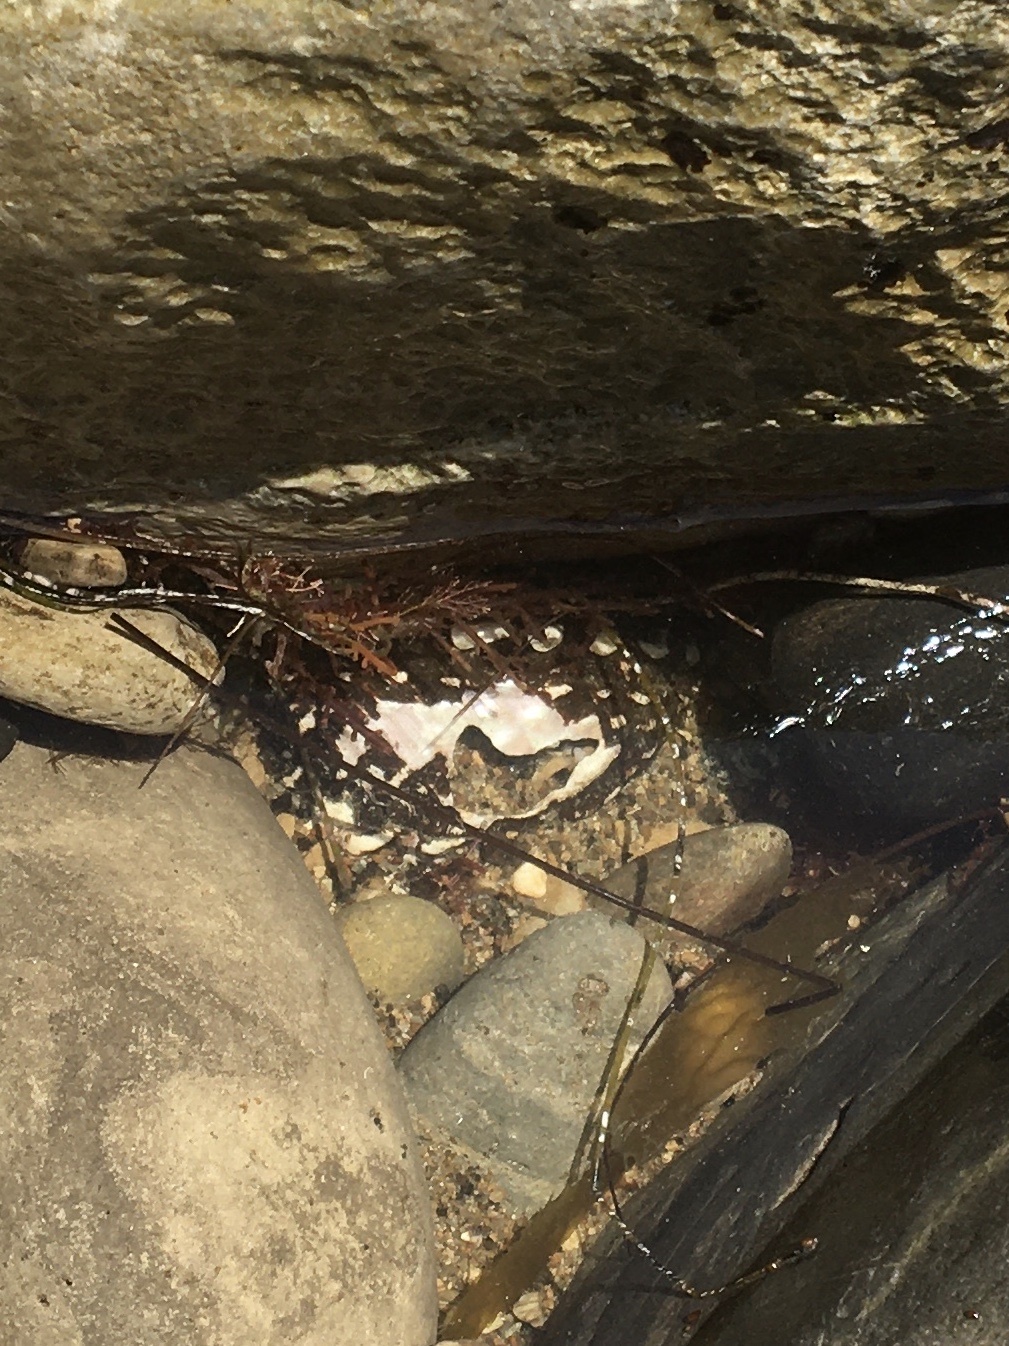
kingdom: Animalia
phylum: Mollusca
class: Gastropoda
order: Trochida
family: Turbinidae
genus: Megastraea
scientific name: Megastraea undosa
